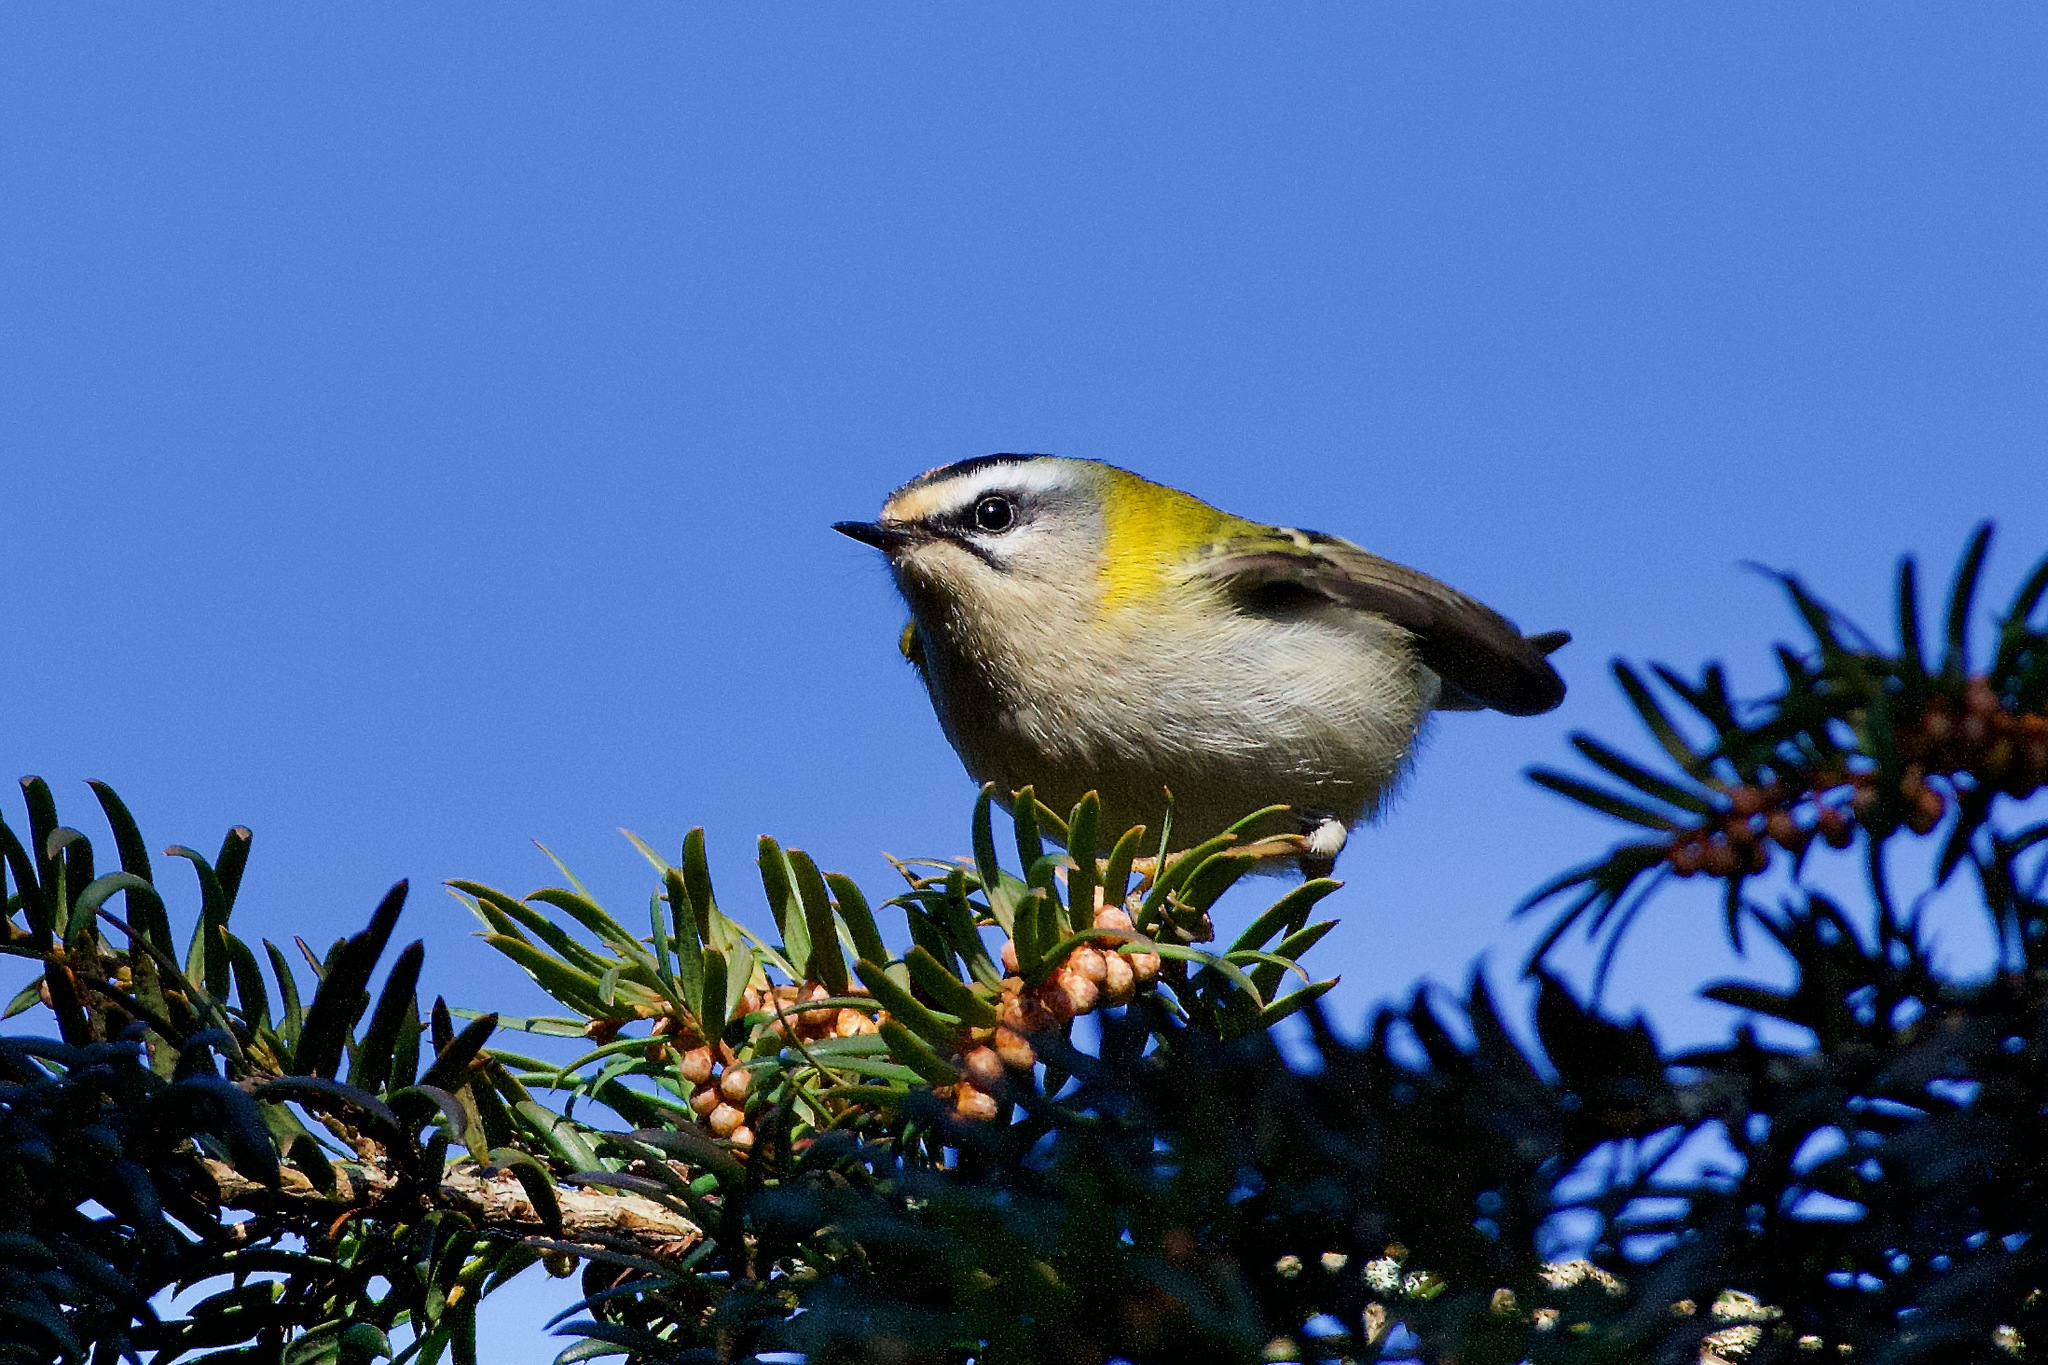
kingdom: Animalia
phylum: Chordata
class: Aves
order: Passeriformes
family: Regulidae
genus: Regulus
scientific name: Regulus ignicapilla
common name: Firecrest
